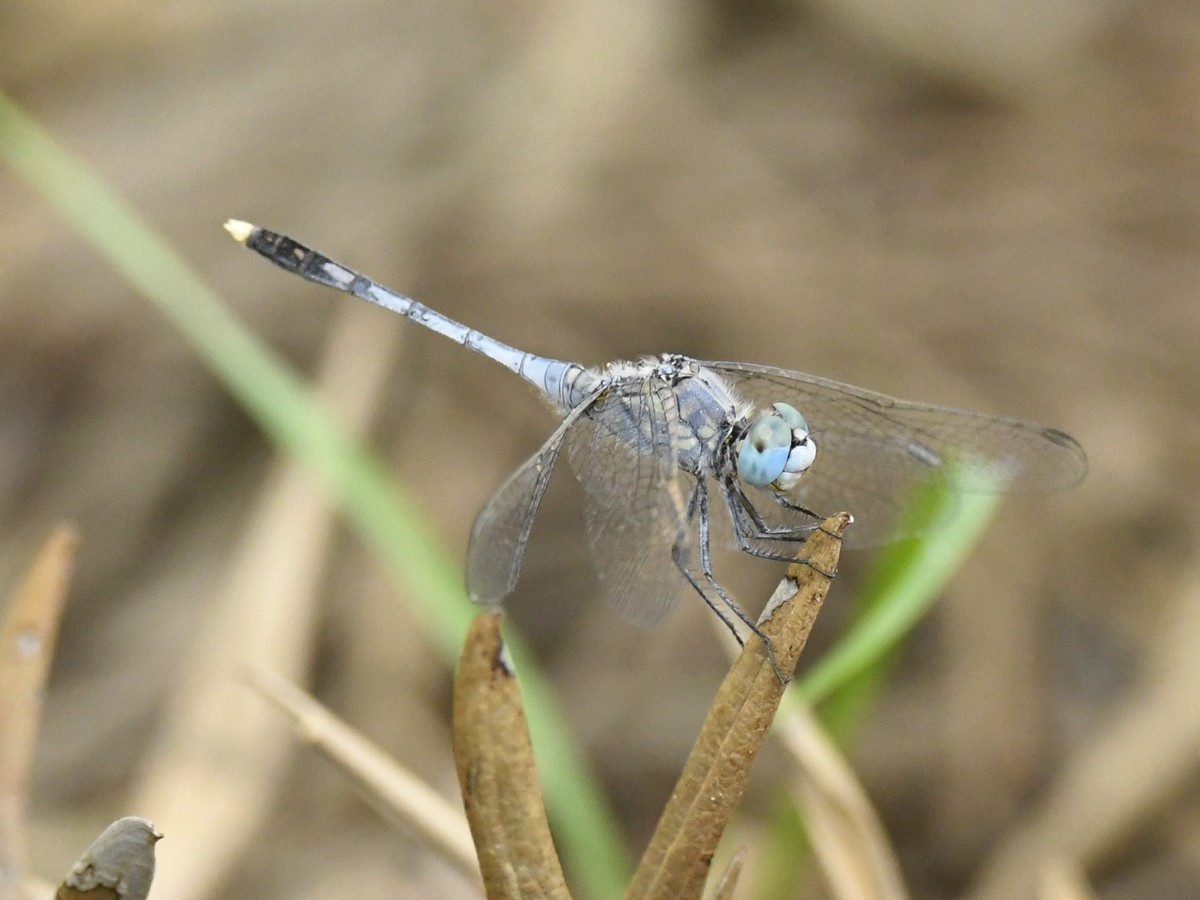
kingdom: Animalia
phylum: Arthropoda
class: Insecta
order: Odonata
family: Libellulidae
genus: Diplacodes
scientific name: Diplacodes trivialis
